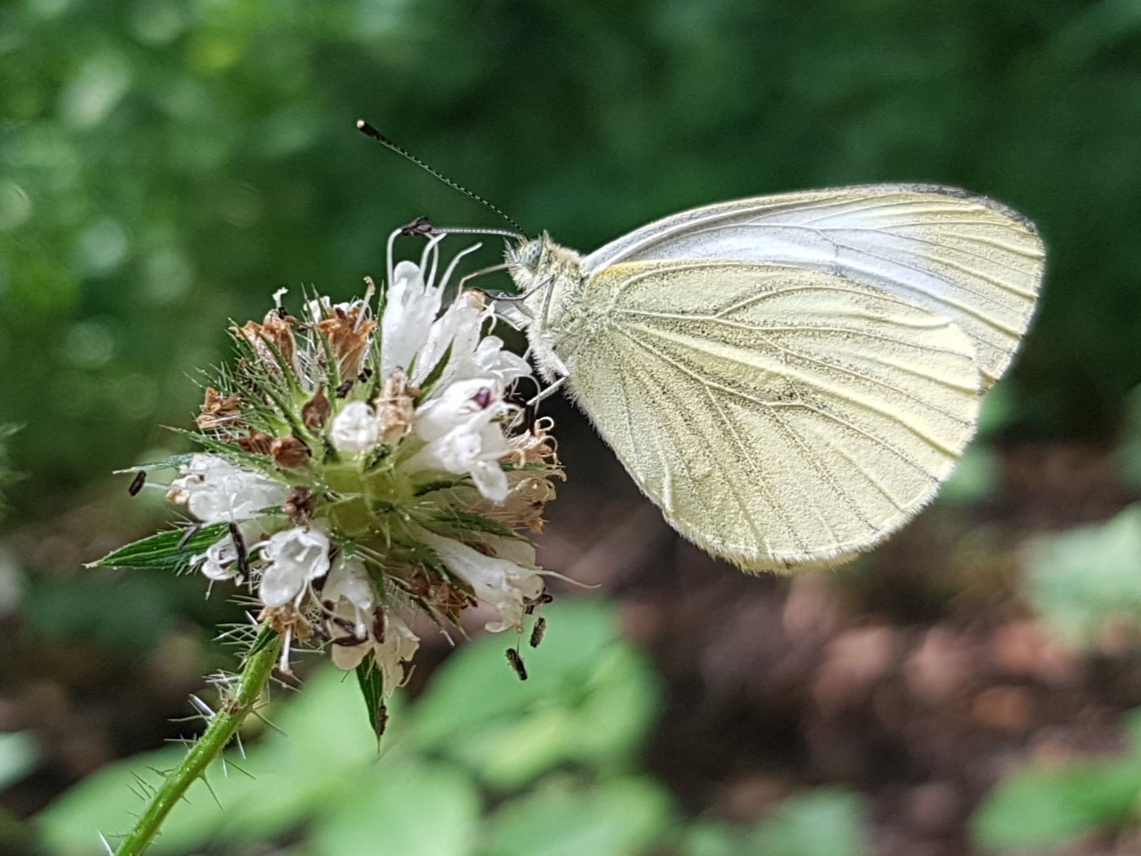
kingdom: Animalia
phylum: Arthropoda
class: Insecta
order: Lepidoptera
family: Pieridae
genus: Pieris
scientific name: Pieris napi
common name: Green-veined white
